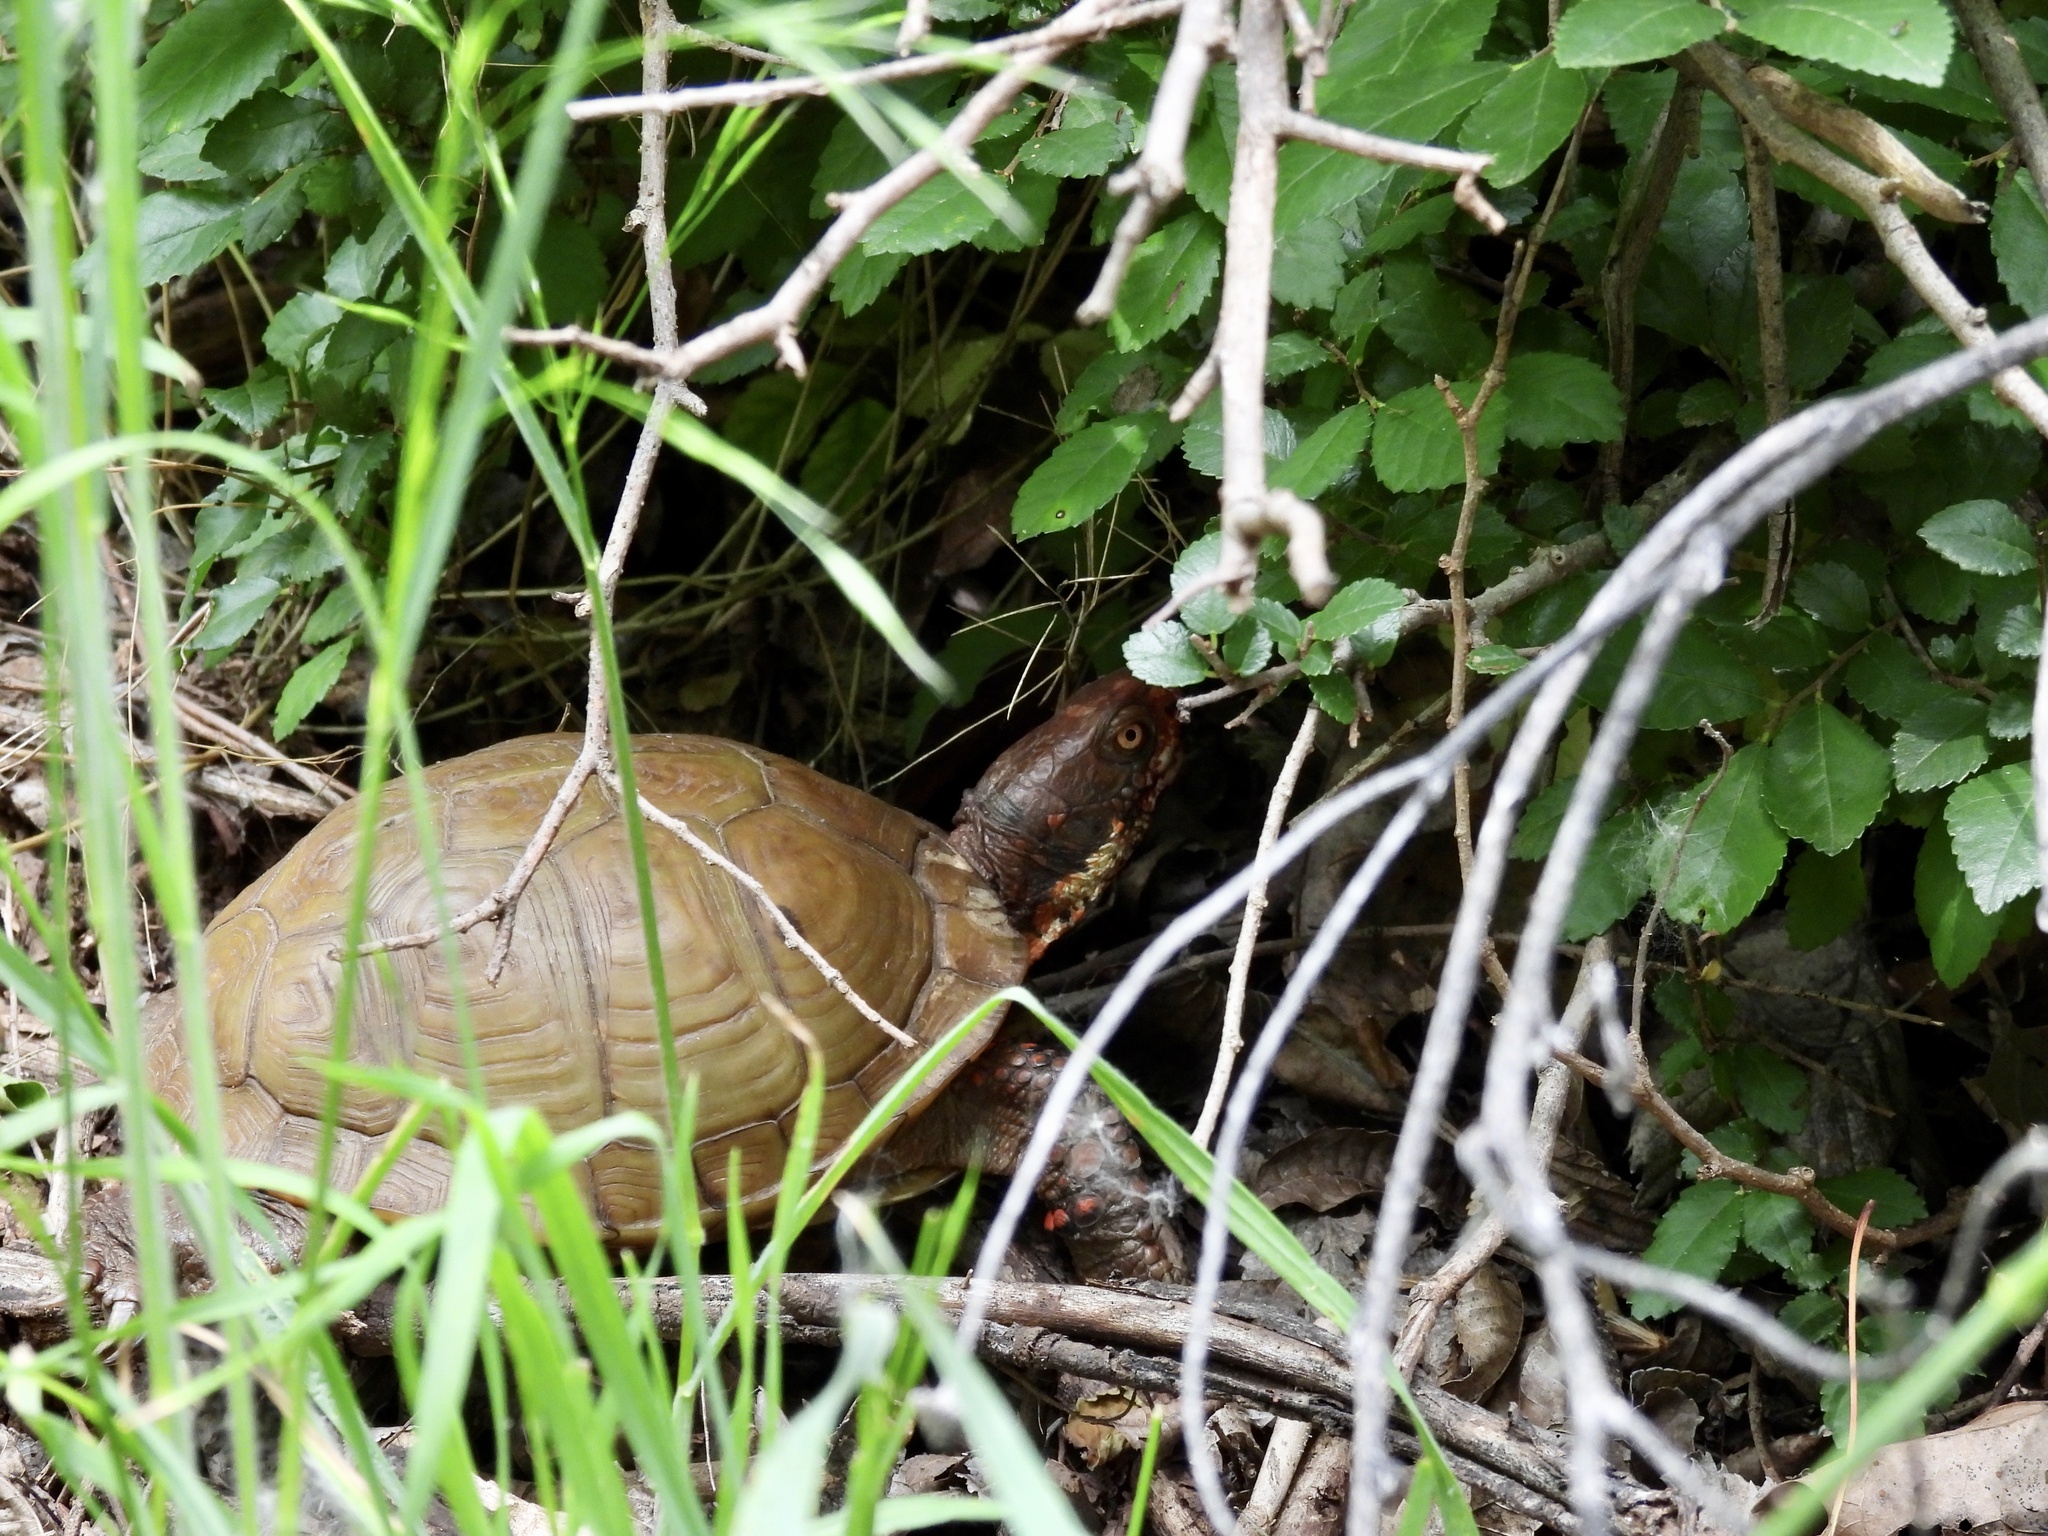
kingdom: Animalia
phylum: Chordata
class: Testudines
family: Emydidae
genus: Terrapene
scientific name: Terrapene carolina
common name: Common box turtle
